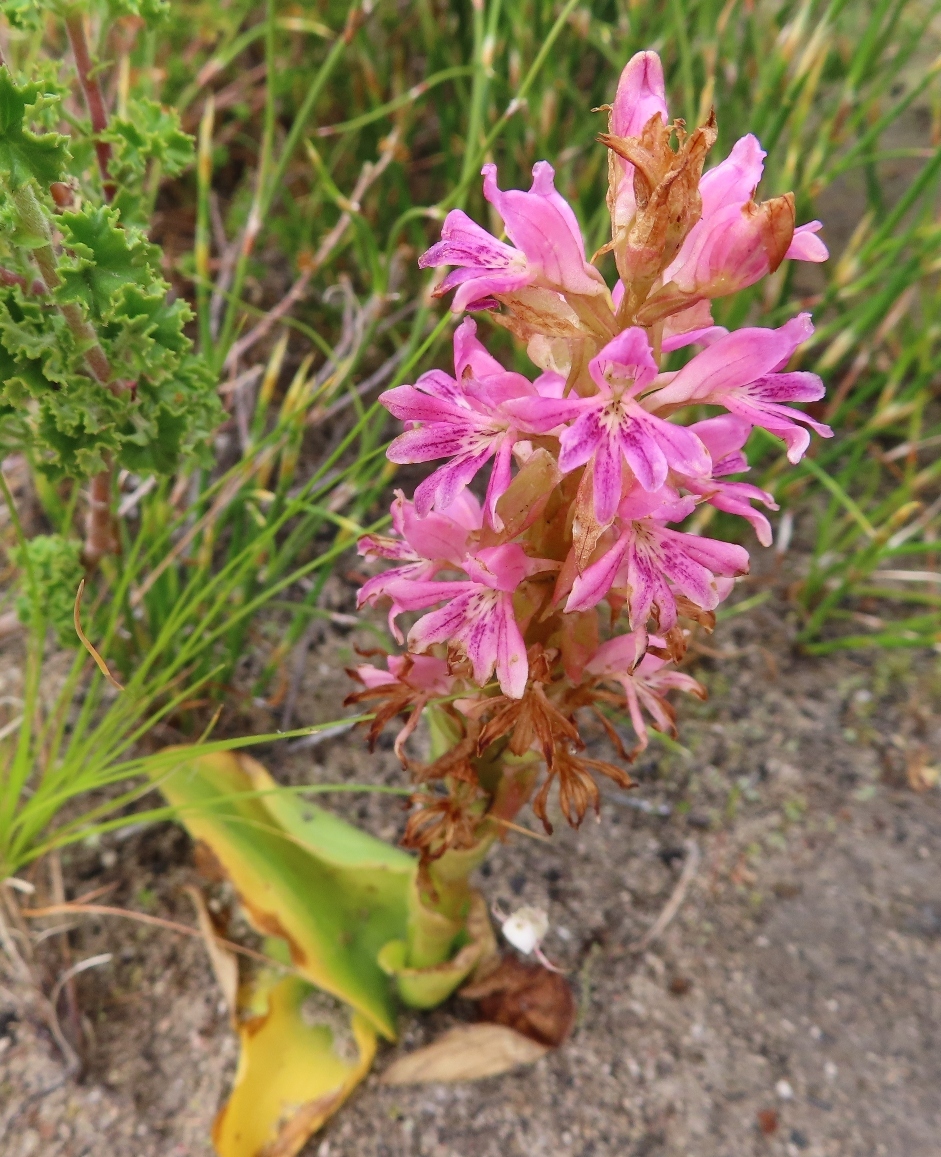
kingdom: Plantae
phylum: Tracheophyta
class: Liliopsida
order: Asparagales
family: Orchidaceae
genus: Satyrium
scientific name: Satyrium erectum
